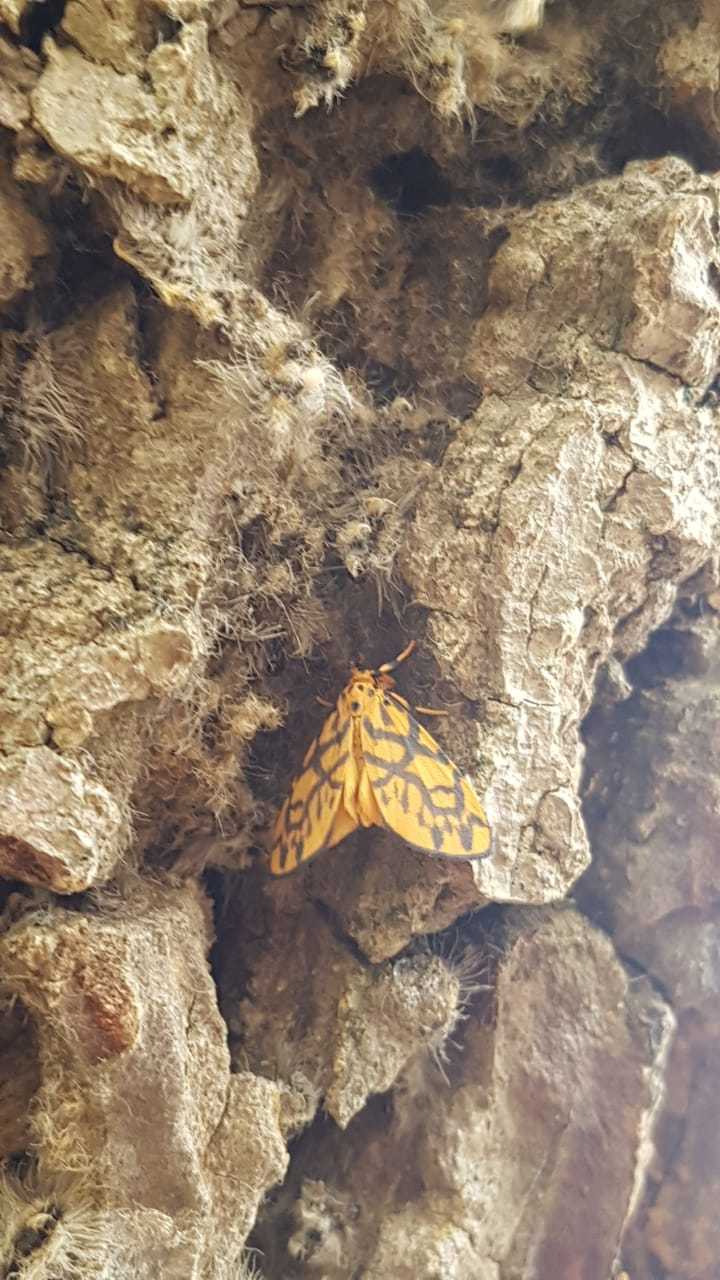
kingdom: Animalia
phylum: Arthropoda
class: Insecta
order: Lepidoptera
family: Erebidae
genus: Tumicla
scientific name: Tumicla sagenaria
